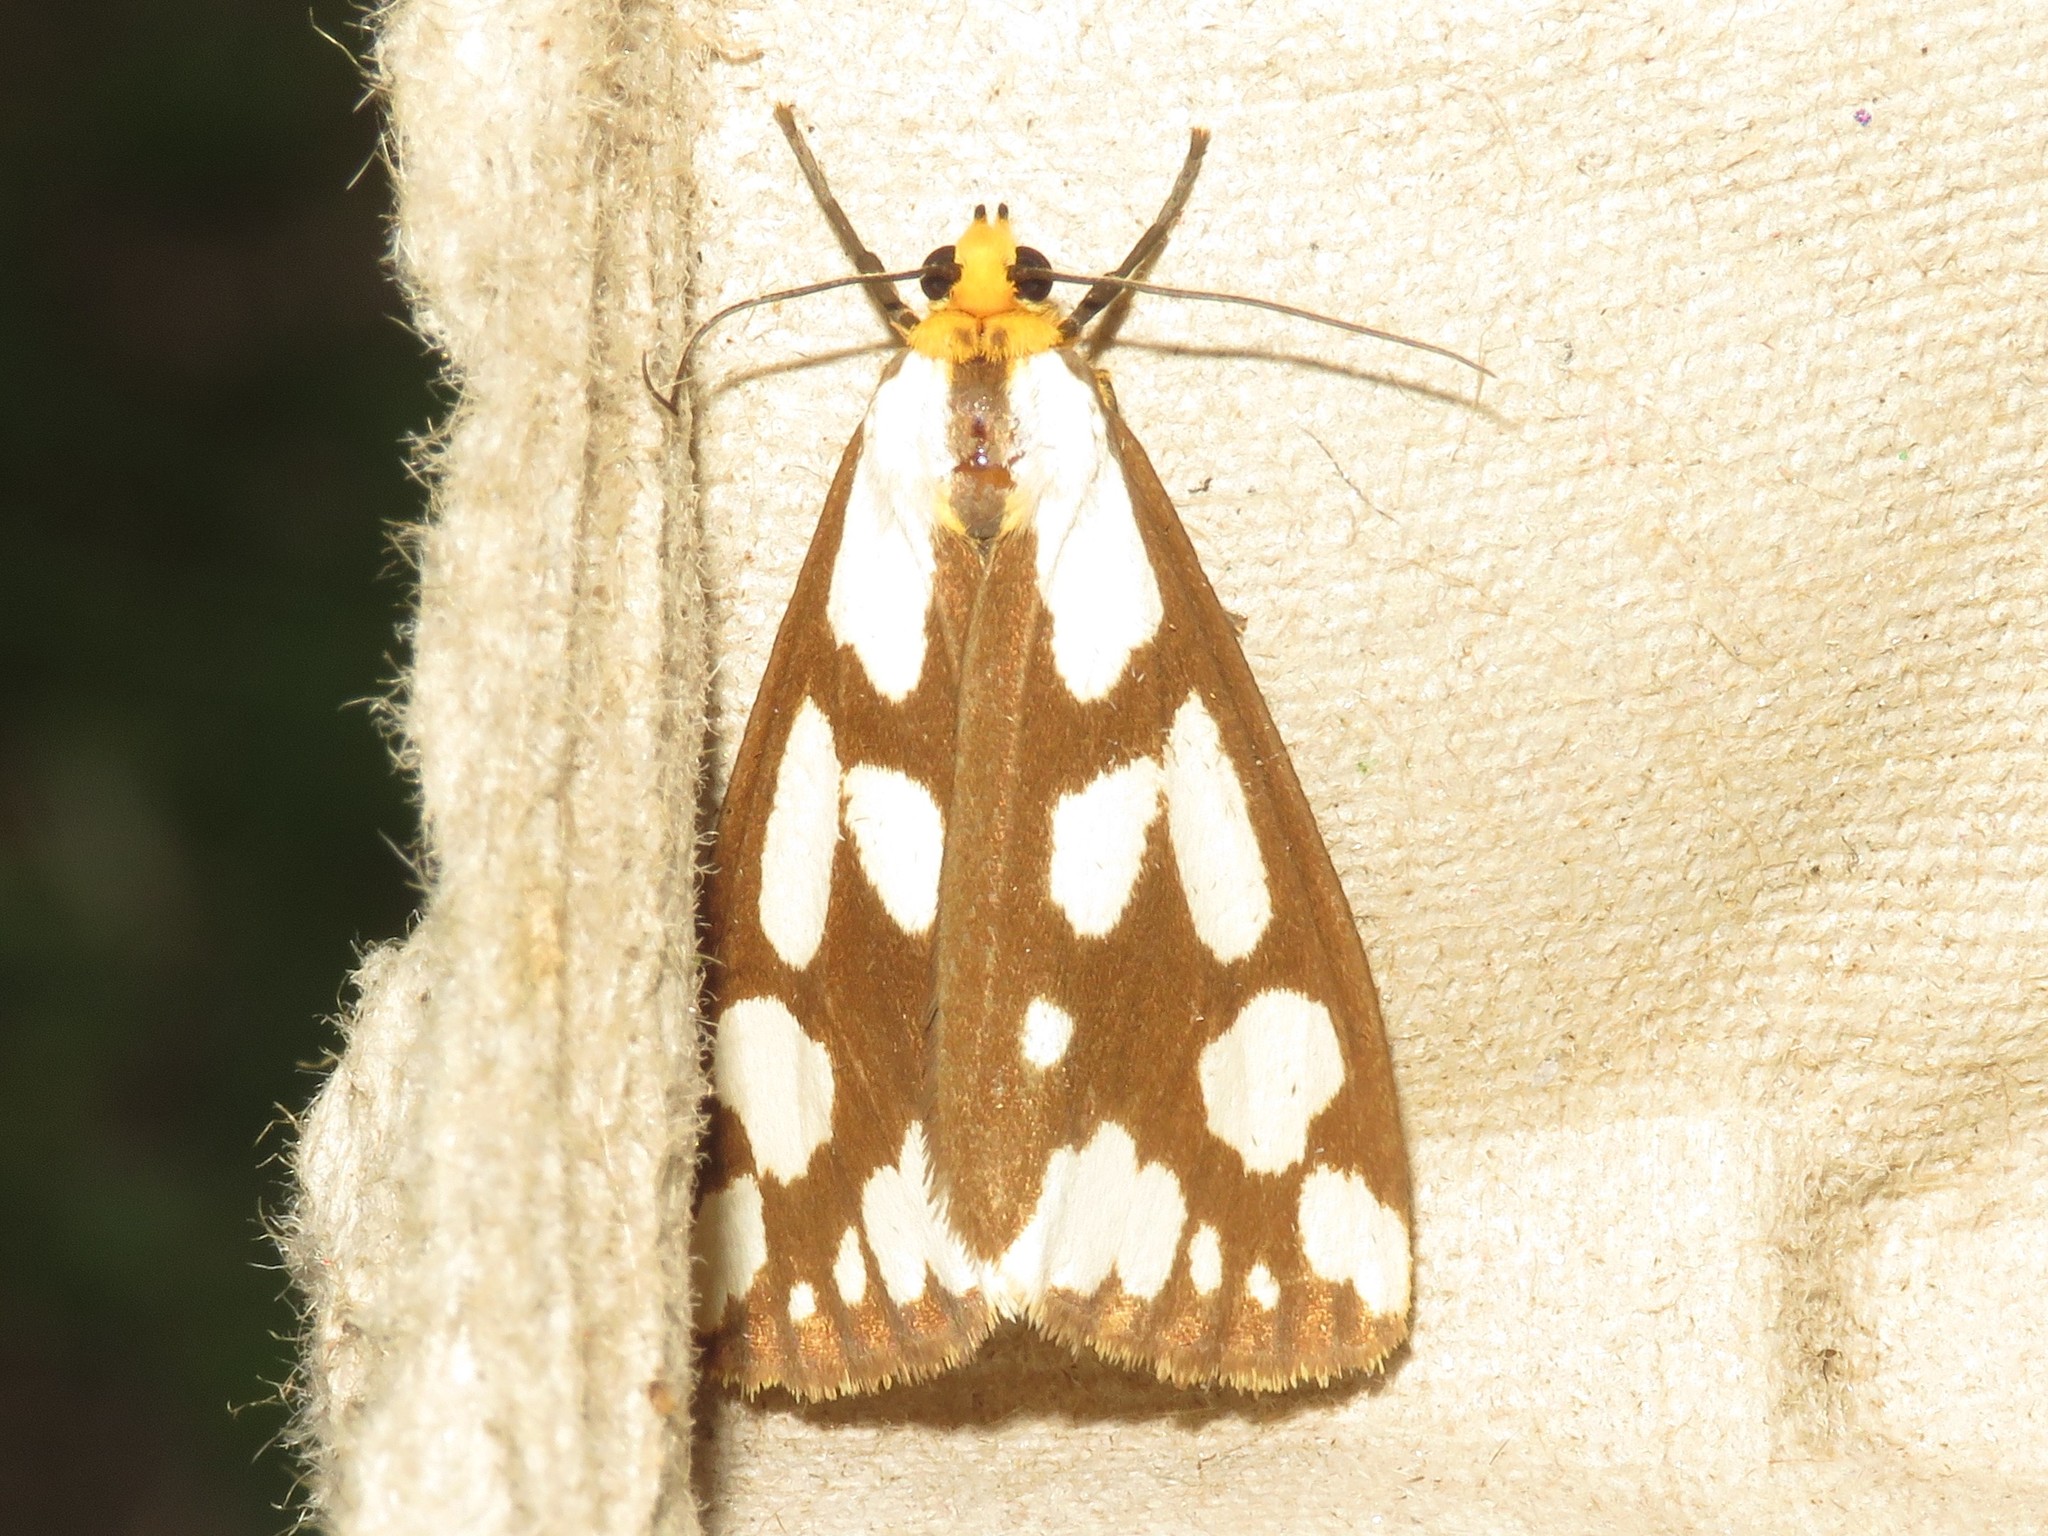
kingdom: Animalia
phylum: Arthropoda
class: Insecta
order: Lepidoptera
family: Erebidae
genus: Haploa
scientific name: Haploa confusa
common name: Confused haploa moth
